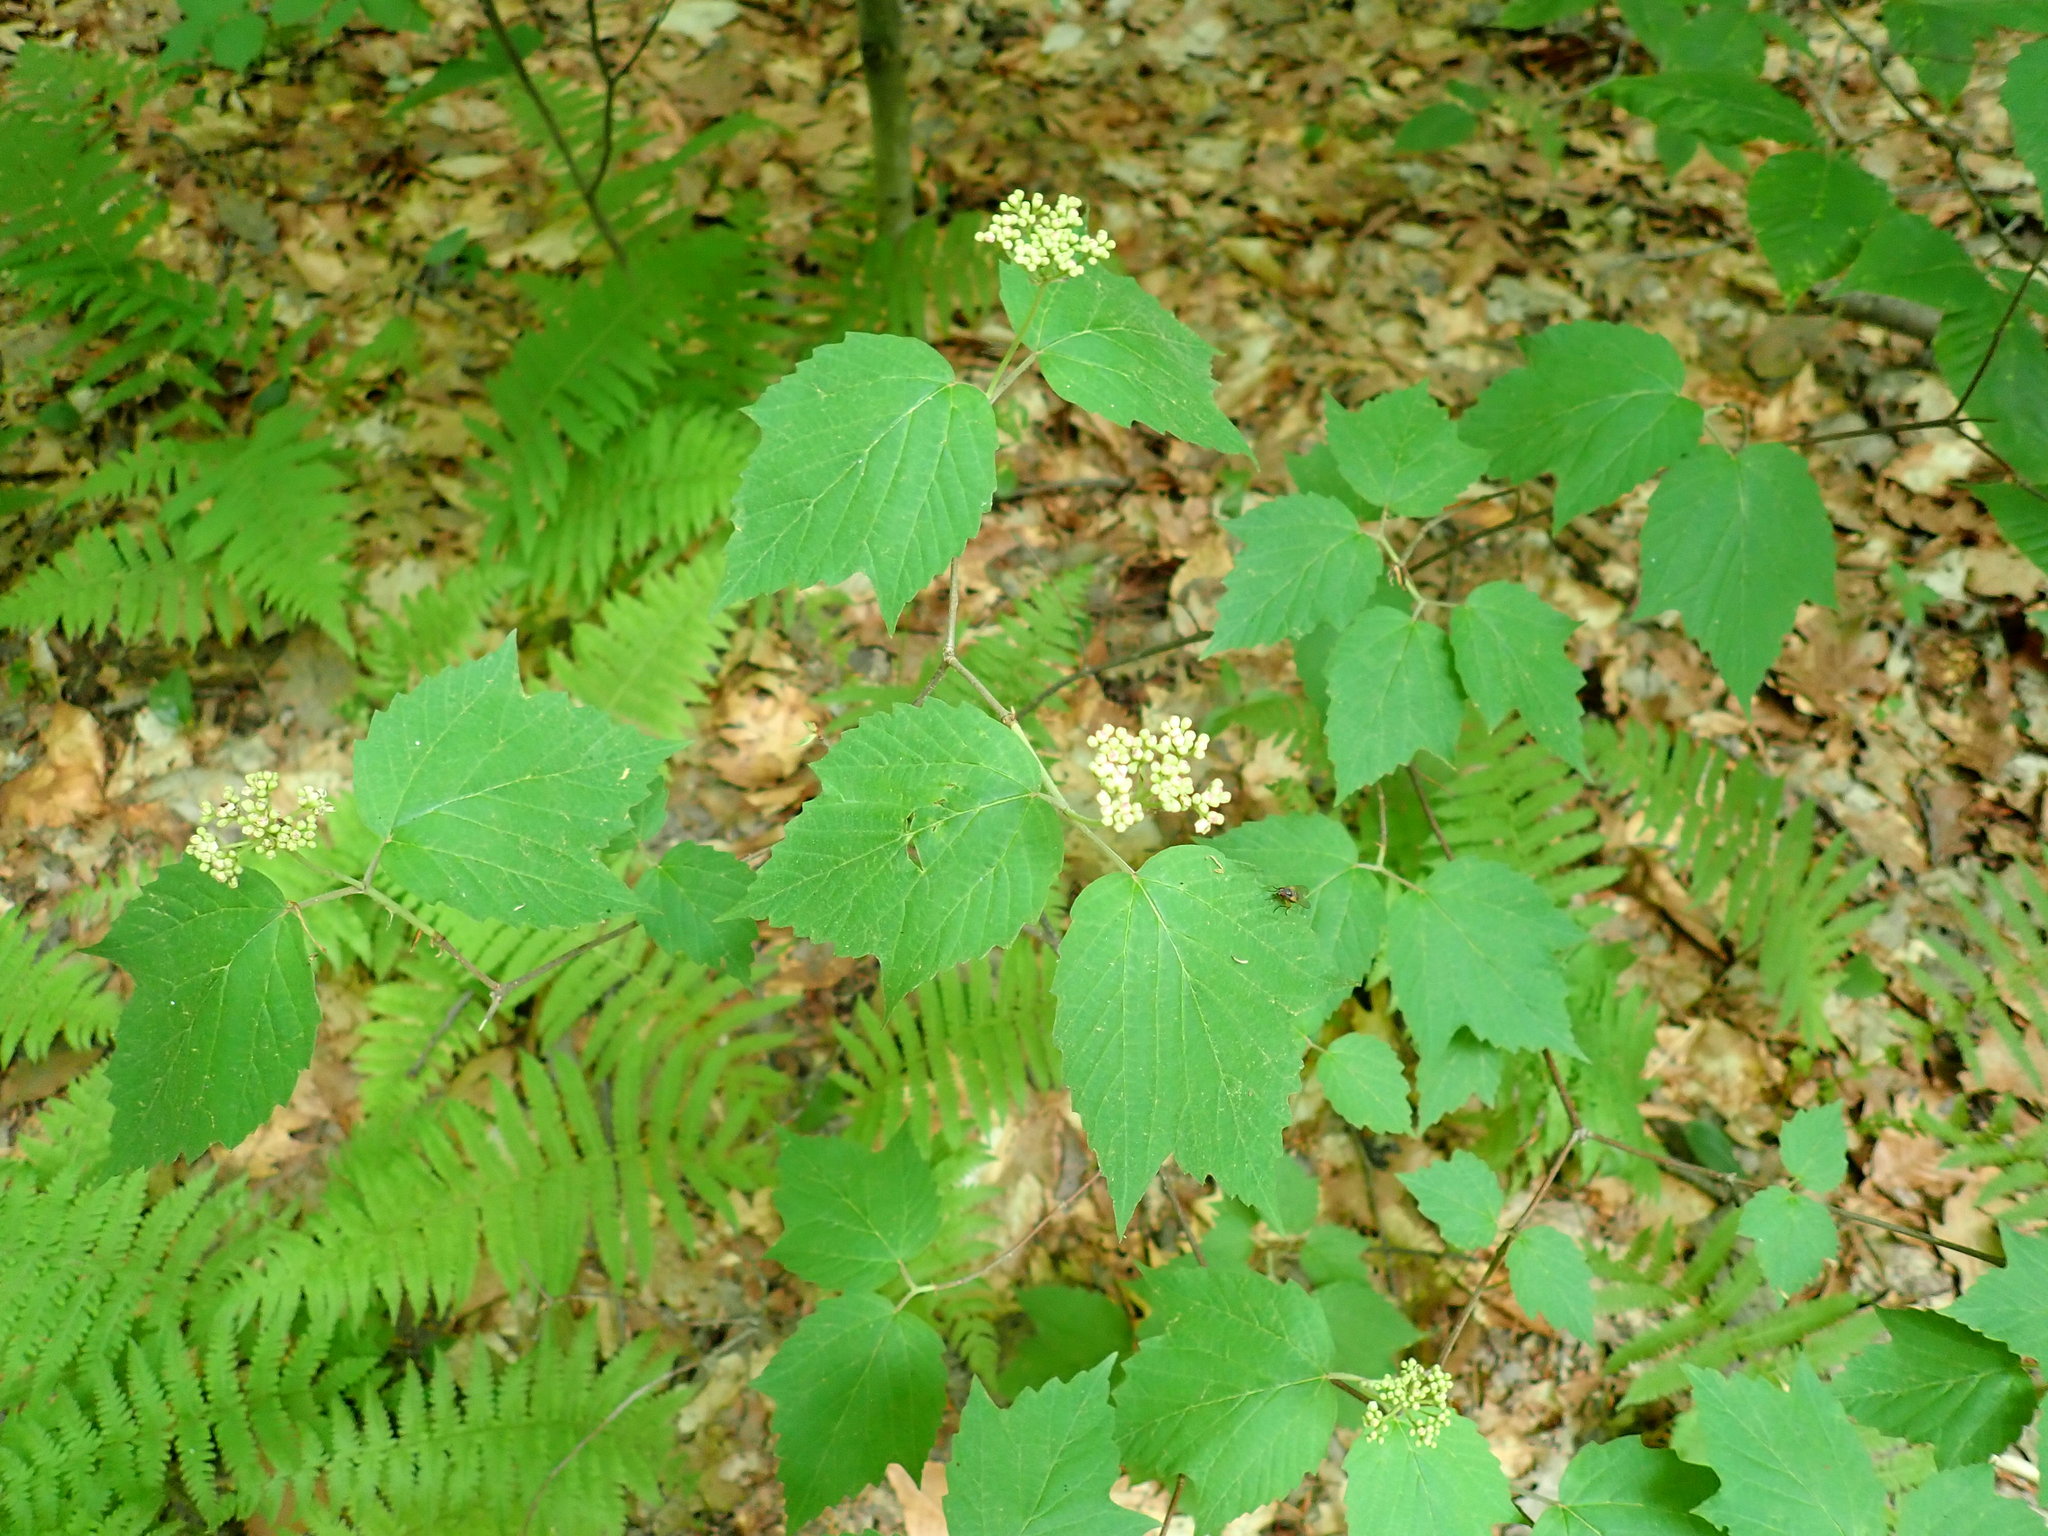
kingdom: Plantae
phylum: Tracheophyta
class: Magnoliopsida
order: Dipsacales
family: Viburnaceae
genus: Viburnum
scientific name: Viburnum acerifolium
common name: Dockmackie
